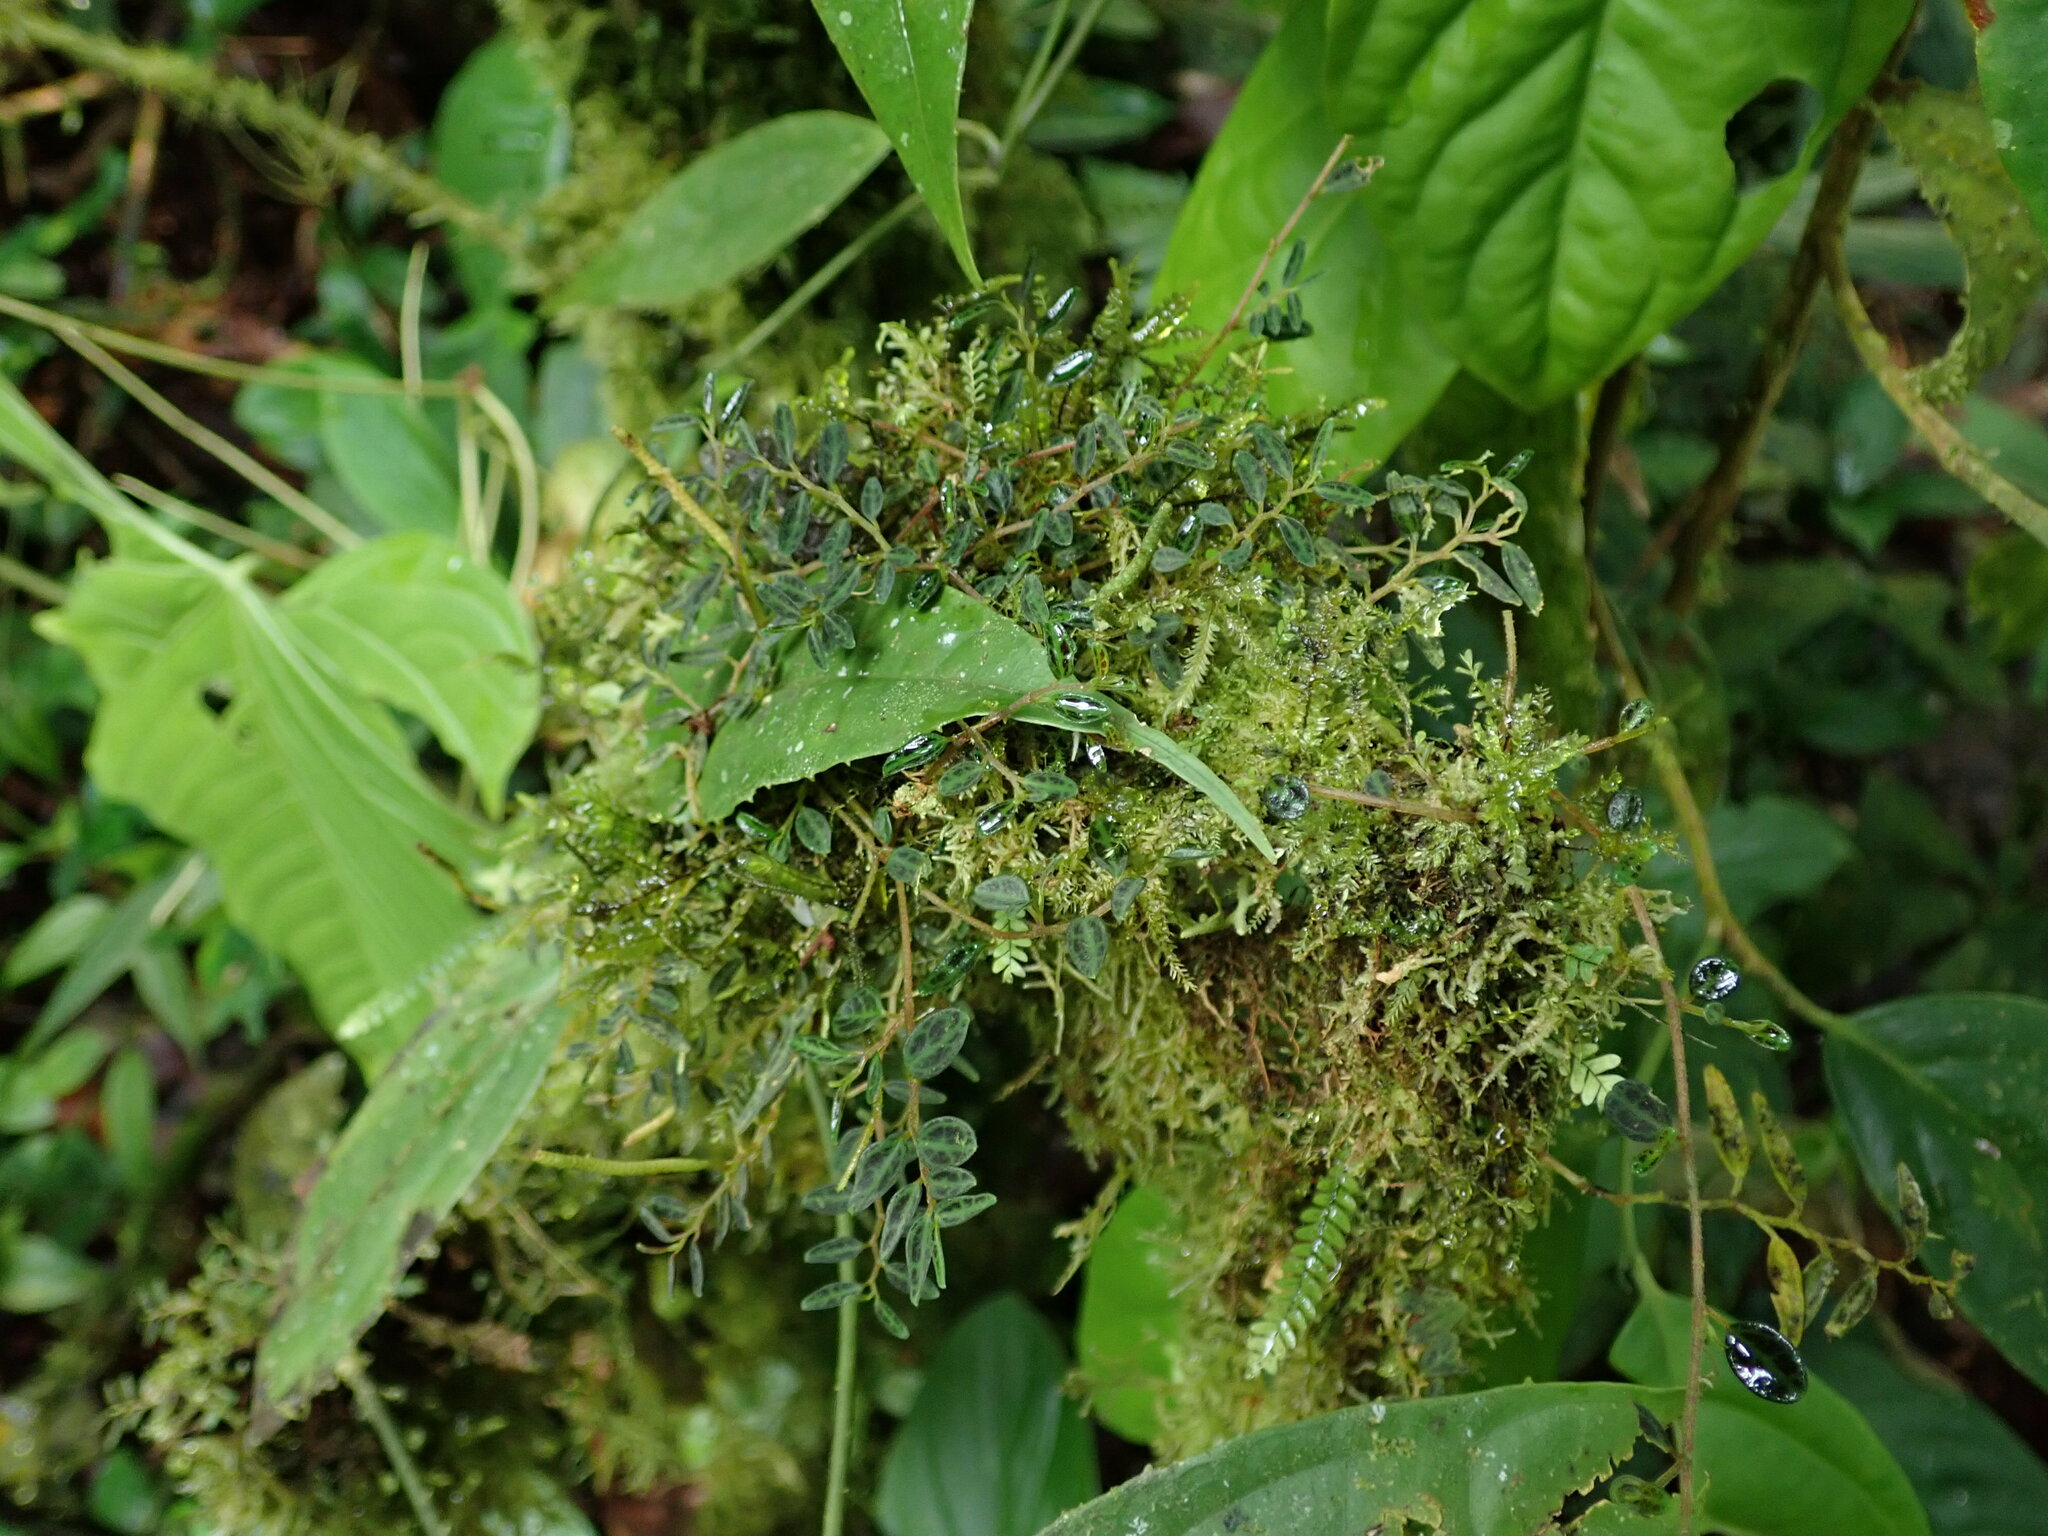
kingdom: Plantae
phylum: Tracheophyta
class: Magnoliopsida
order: Piperales
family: Piperaceae
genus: Peperomia
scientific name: Peperomia jamesoniana
